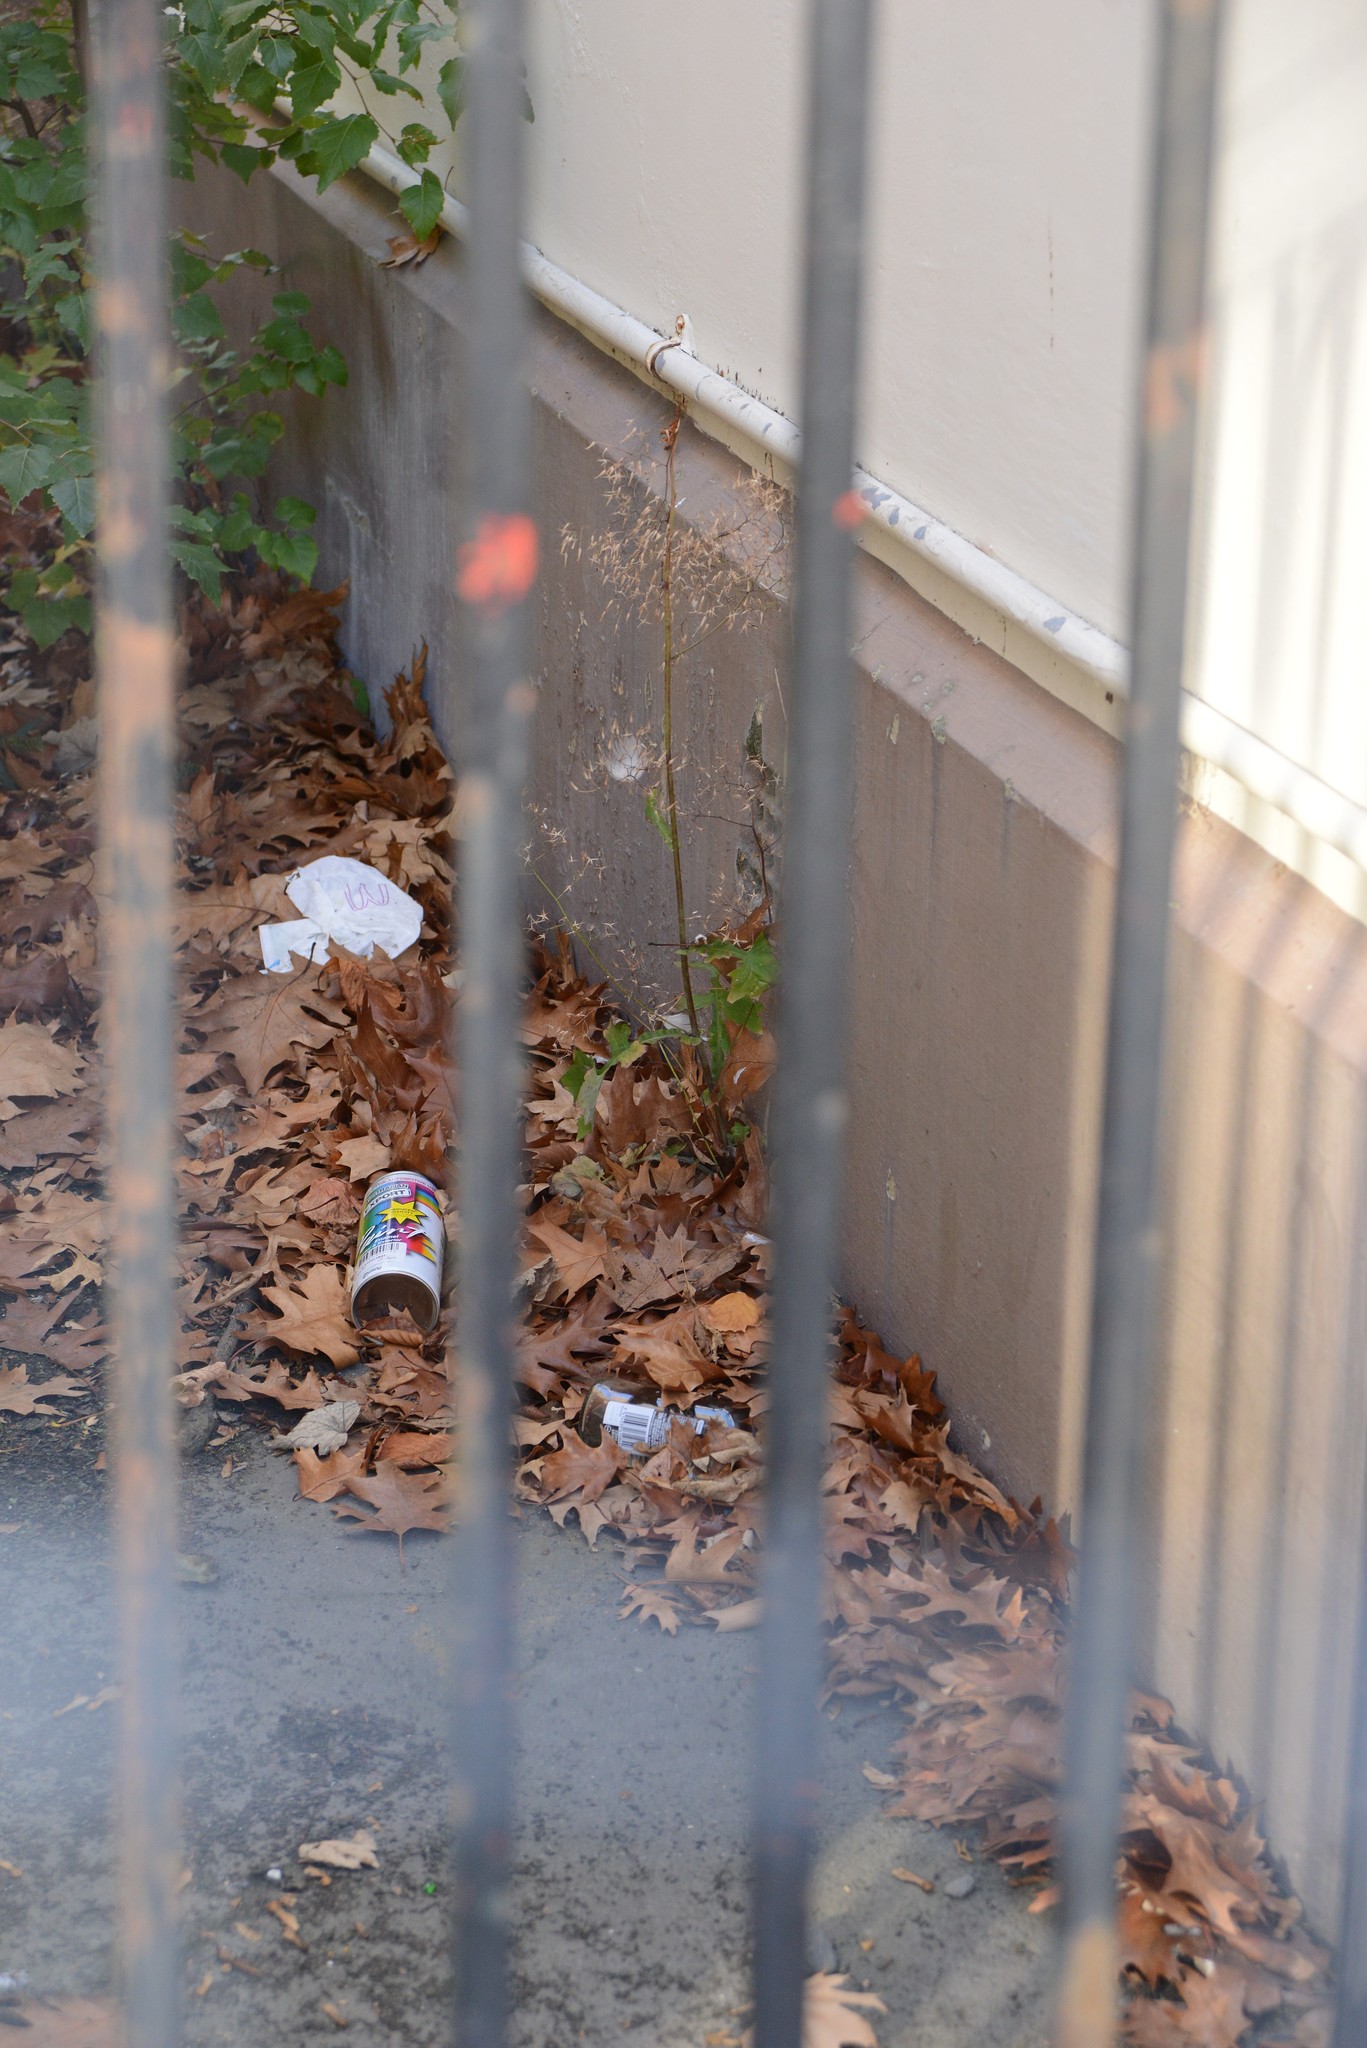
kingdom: Plantae
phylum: Tracheophyta
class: Magnoliopsida
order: Asterales
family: Asteraceae
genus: Mycelis
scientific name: Mycelis muralis
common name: Wall lettuce
